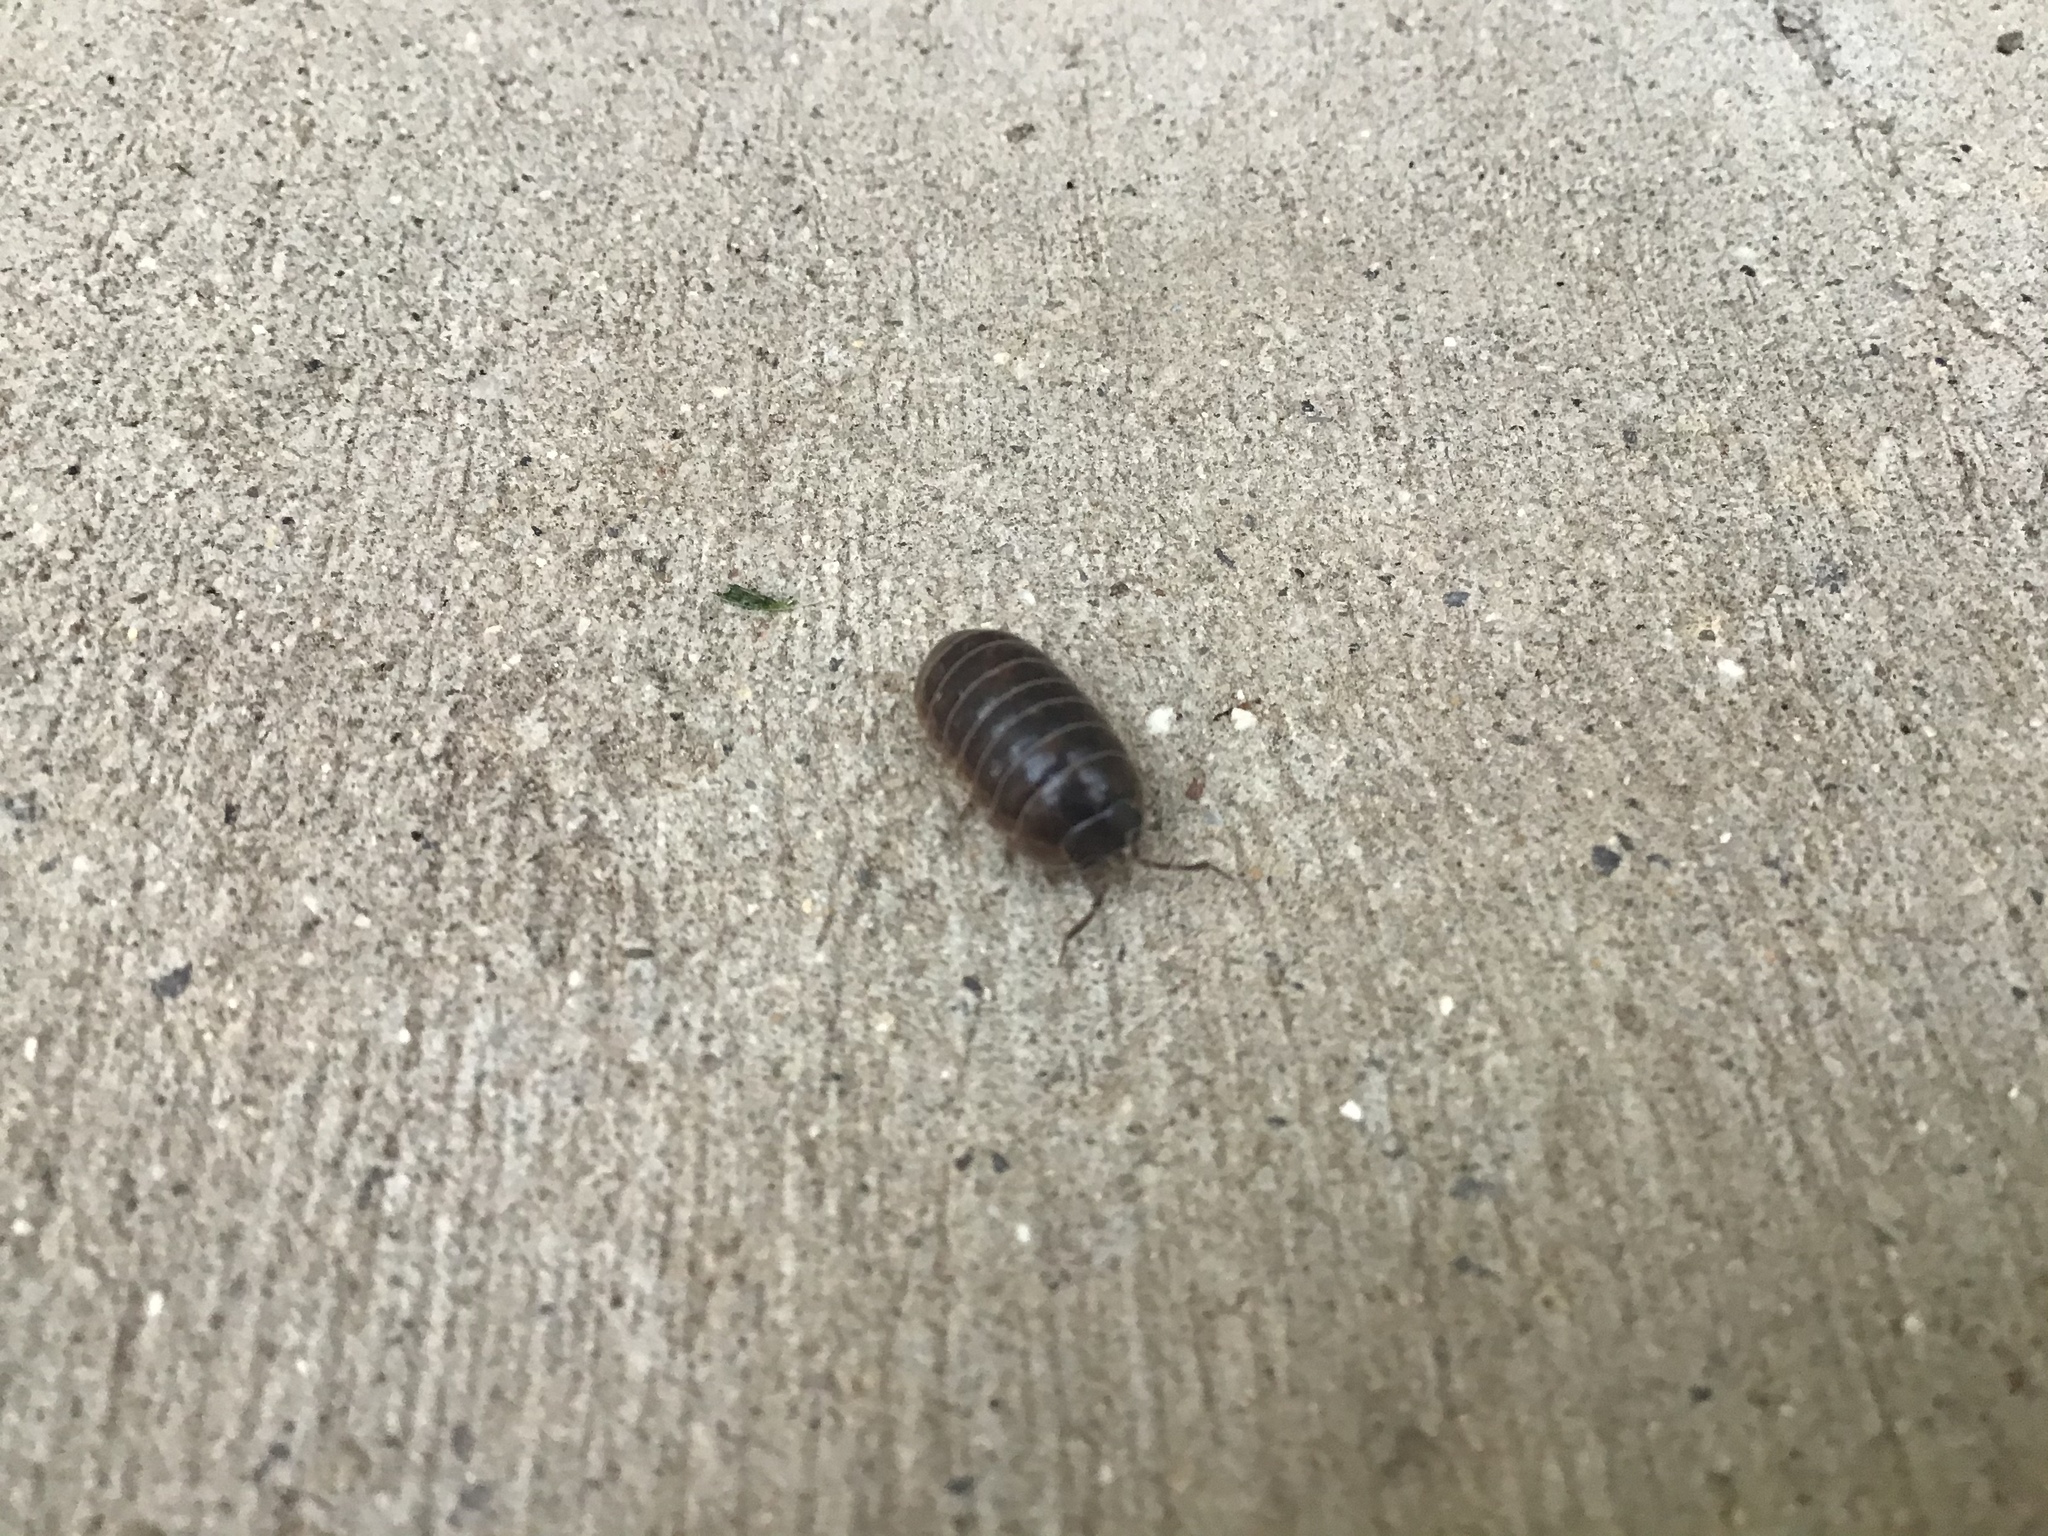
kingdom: Animalia
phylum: Arthropoda
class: Malacostraca
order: Isopoda
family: Armadillidiidae
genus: Armadillidium
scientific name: Armadillidium vulgare
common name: Common pill woodlouse
